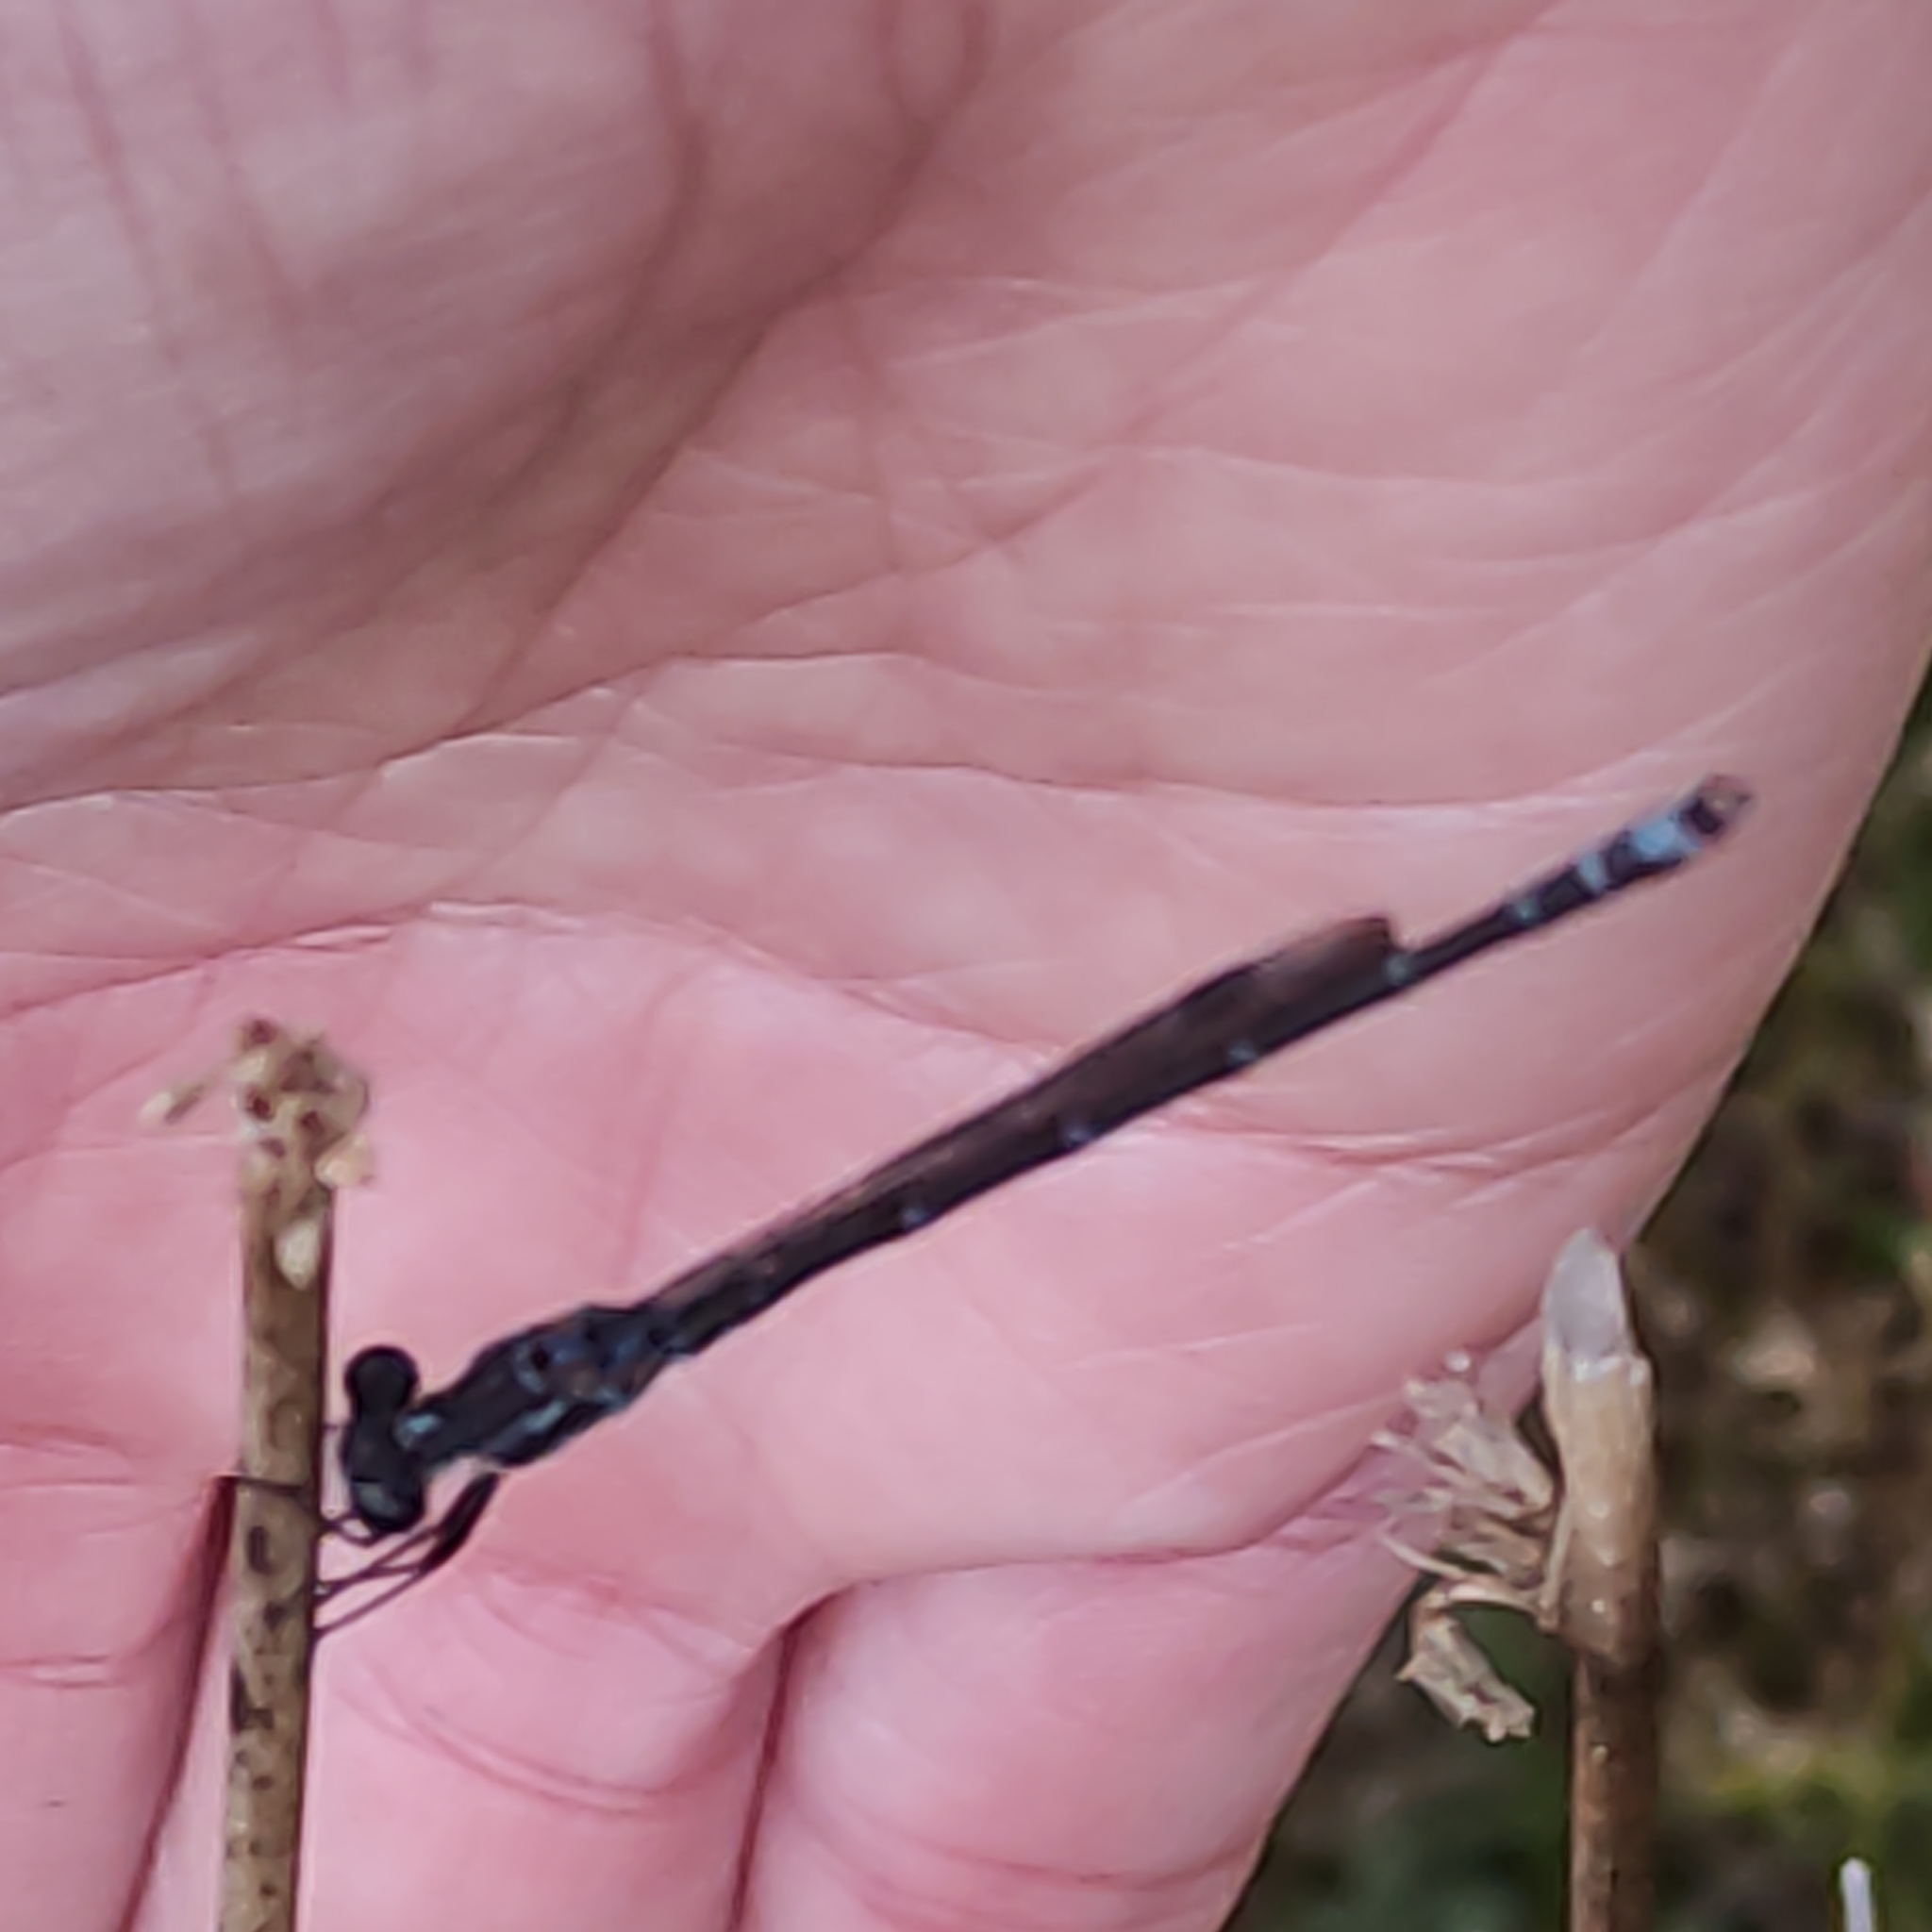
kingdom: Animalia
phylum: Arthropoda
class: Insecta
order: Odonata
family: Lestidae
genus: Austrolestes
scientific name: Austrolestes colensonis
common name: Blue damselfly
